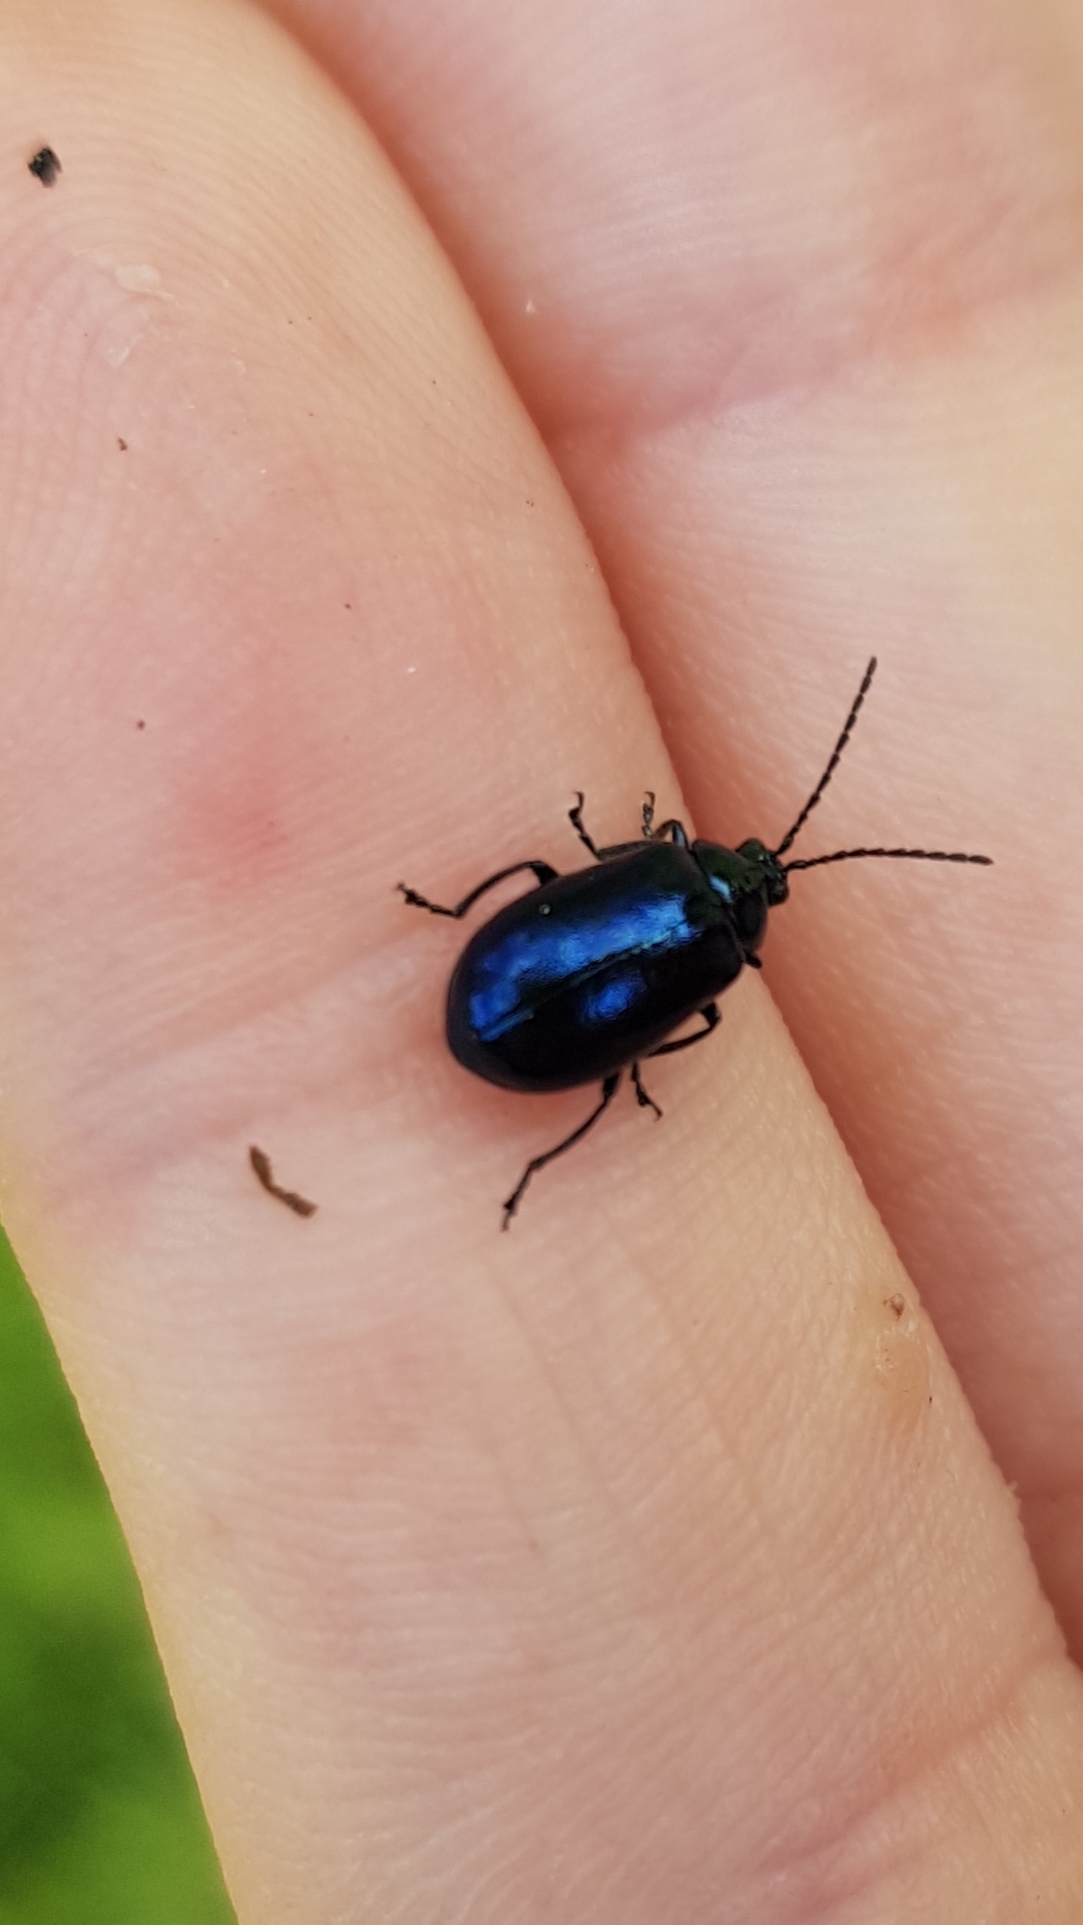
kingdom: Animalia
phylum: Arthropoda
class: Insecta
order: Coleoptera
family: Chrysomelidae
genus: Agelastica
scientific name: Agelastica alni
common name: Alder leaf beetle
